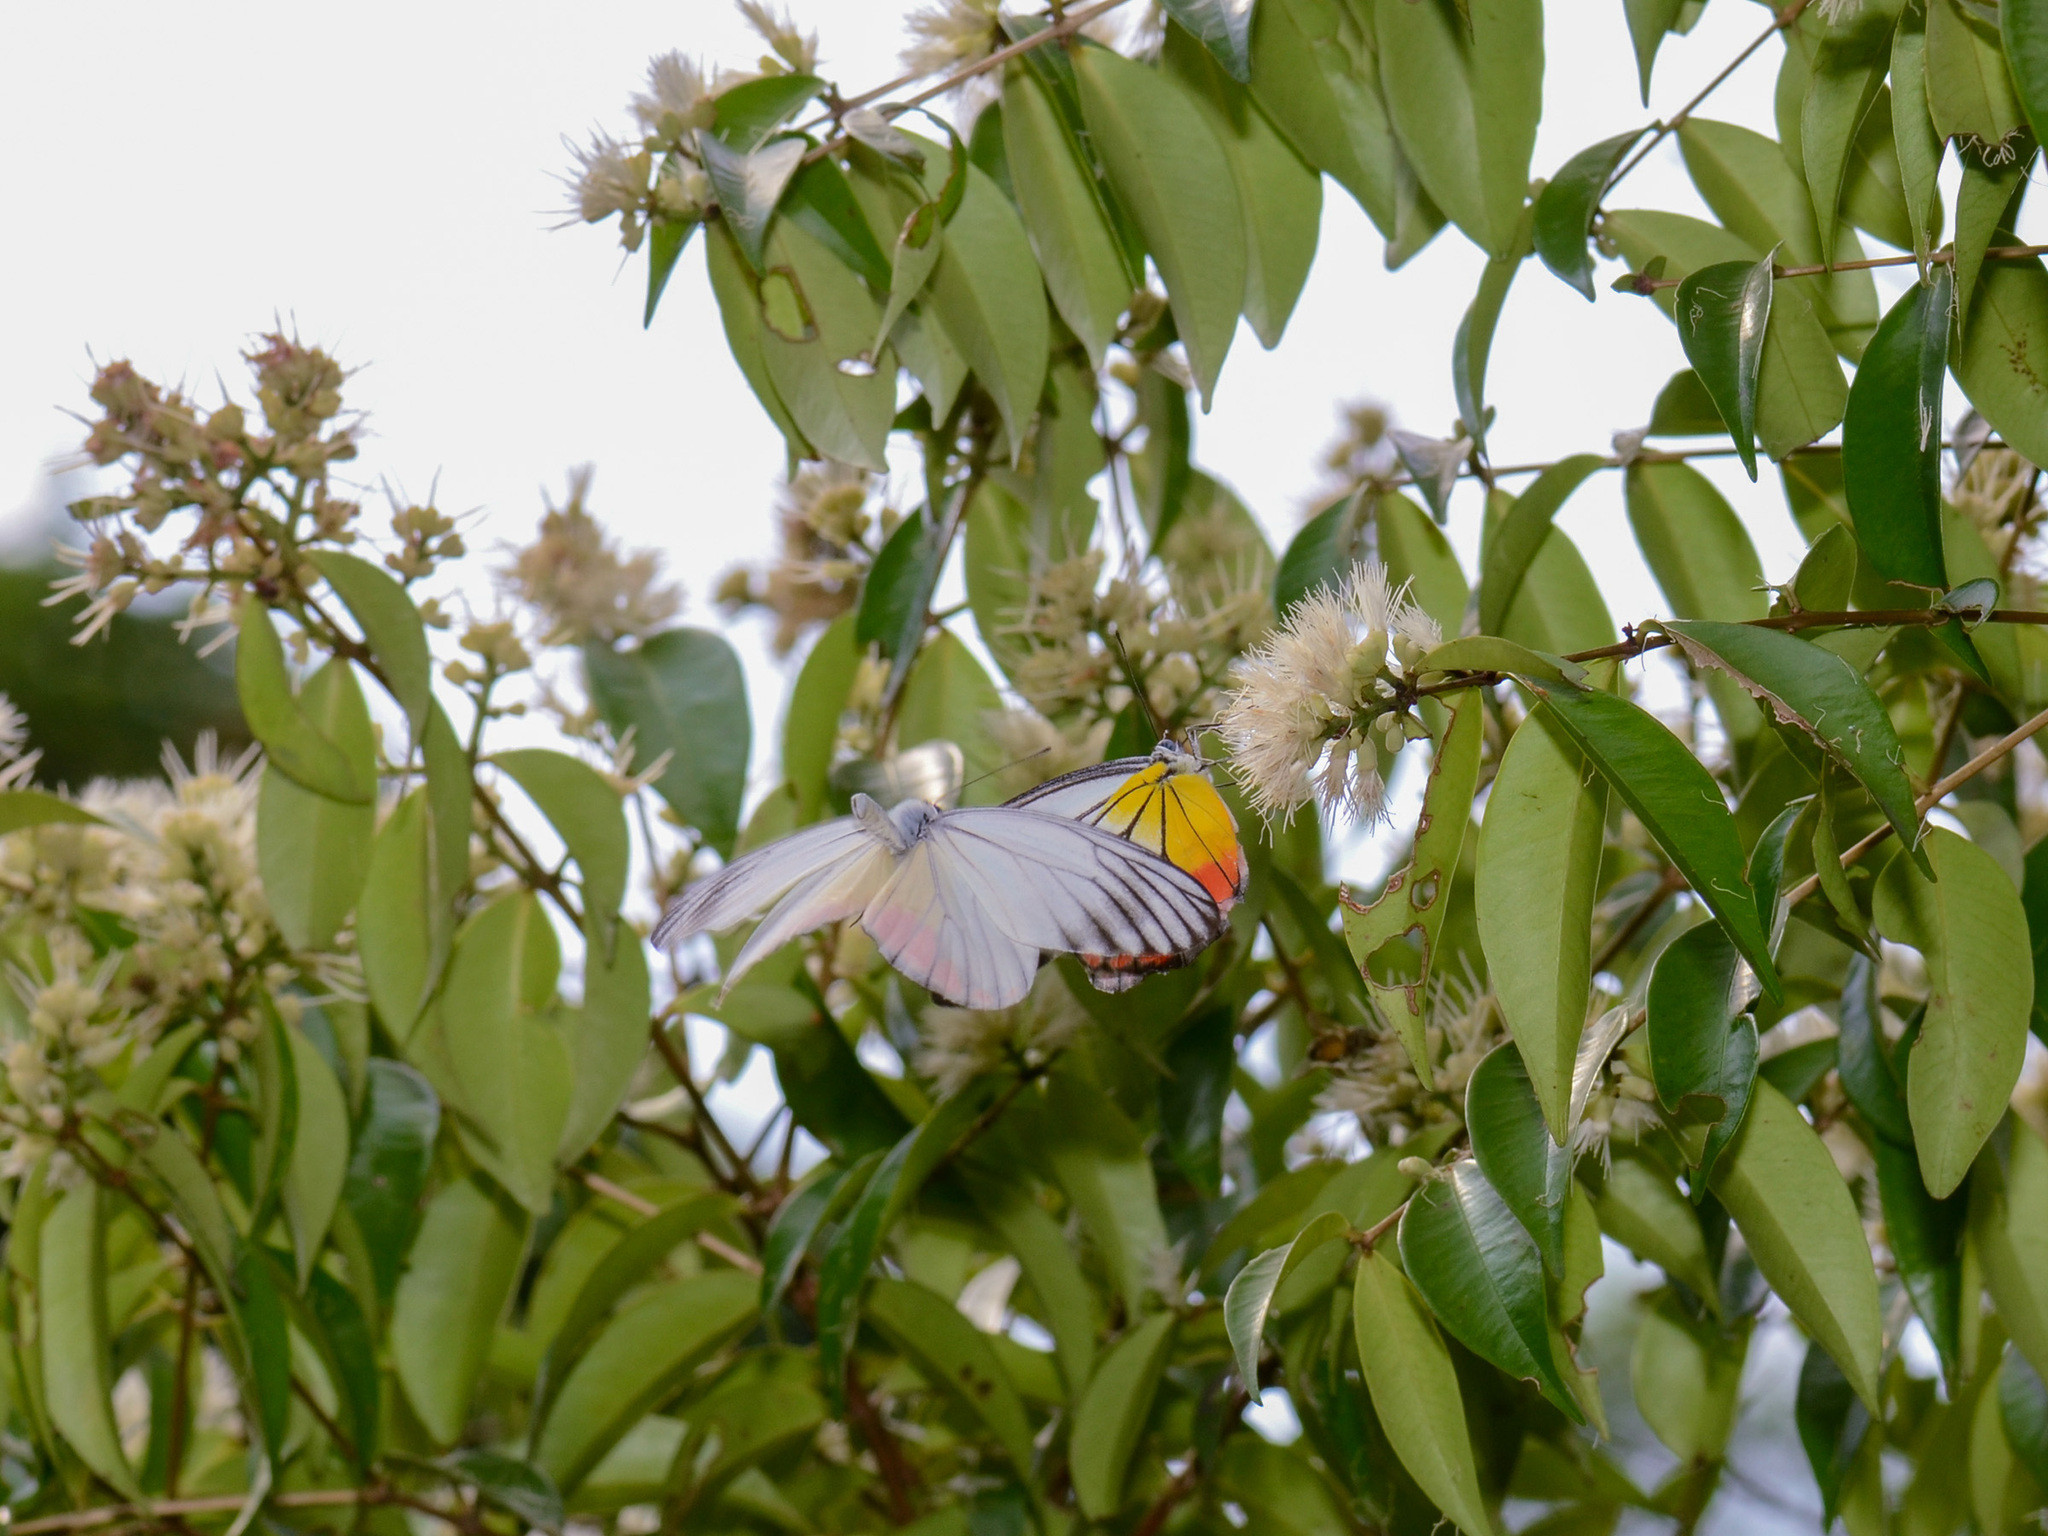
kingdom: Animalia
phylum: Arthropoda
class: Insecta
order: Lepidoptera
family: Pieridae
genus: Delias
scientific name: Delias hyparete
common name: Painted jezebel
